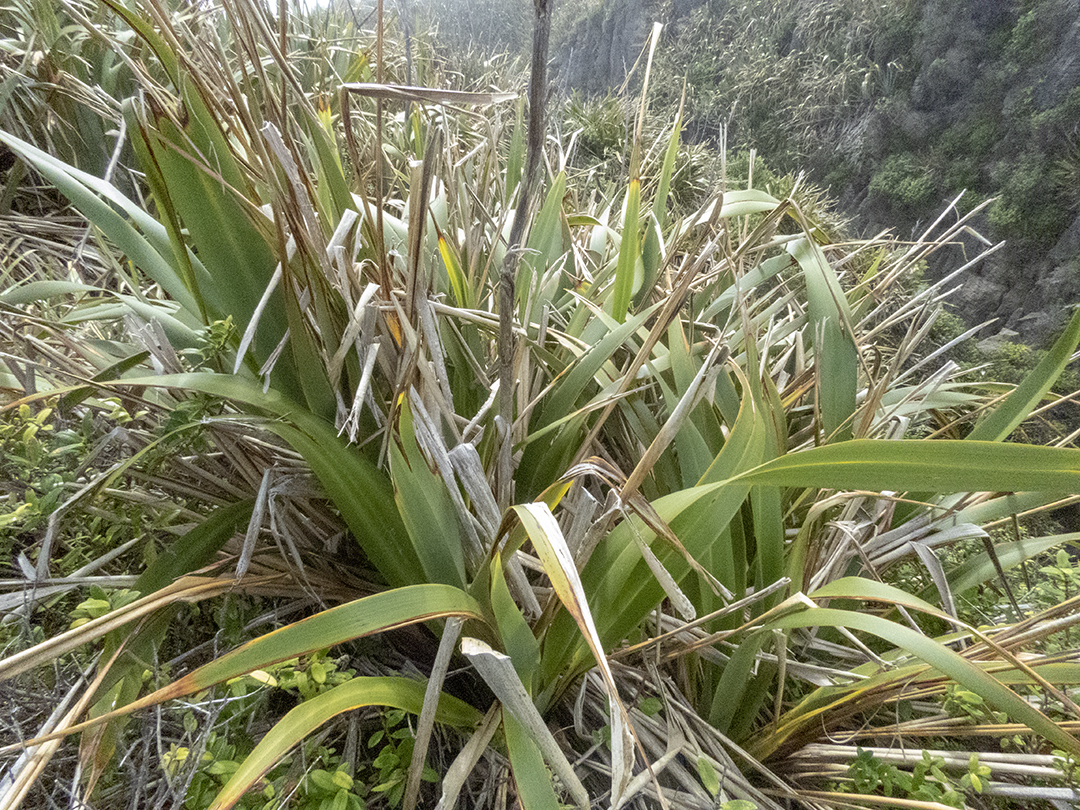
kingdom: Plantae
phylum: Tracheophyta
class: Liliopsida
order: Asparagales
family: Asphodelaceae
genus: Phormium
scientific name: Phormium tenax
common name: New zealand flax
